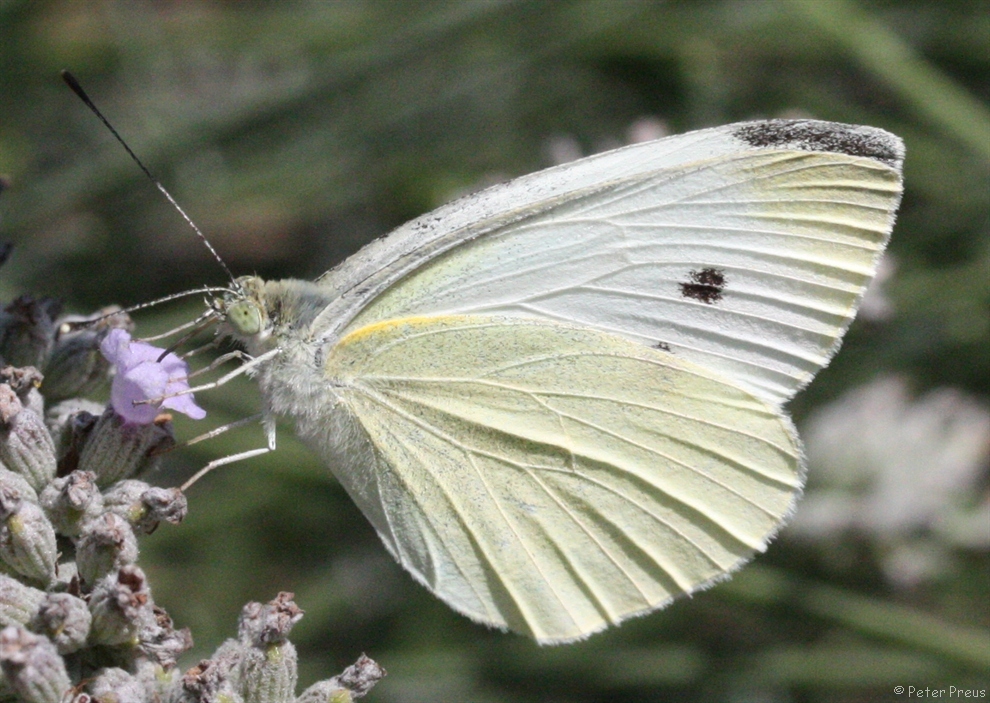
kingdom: Animalia
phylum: Arthropoda
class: Insecta
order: Lepidoptera
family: Pieridae
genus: Pieris
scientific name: Pieris rapae
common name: Small white
